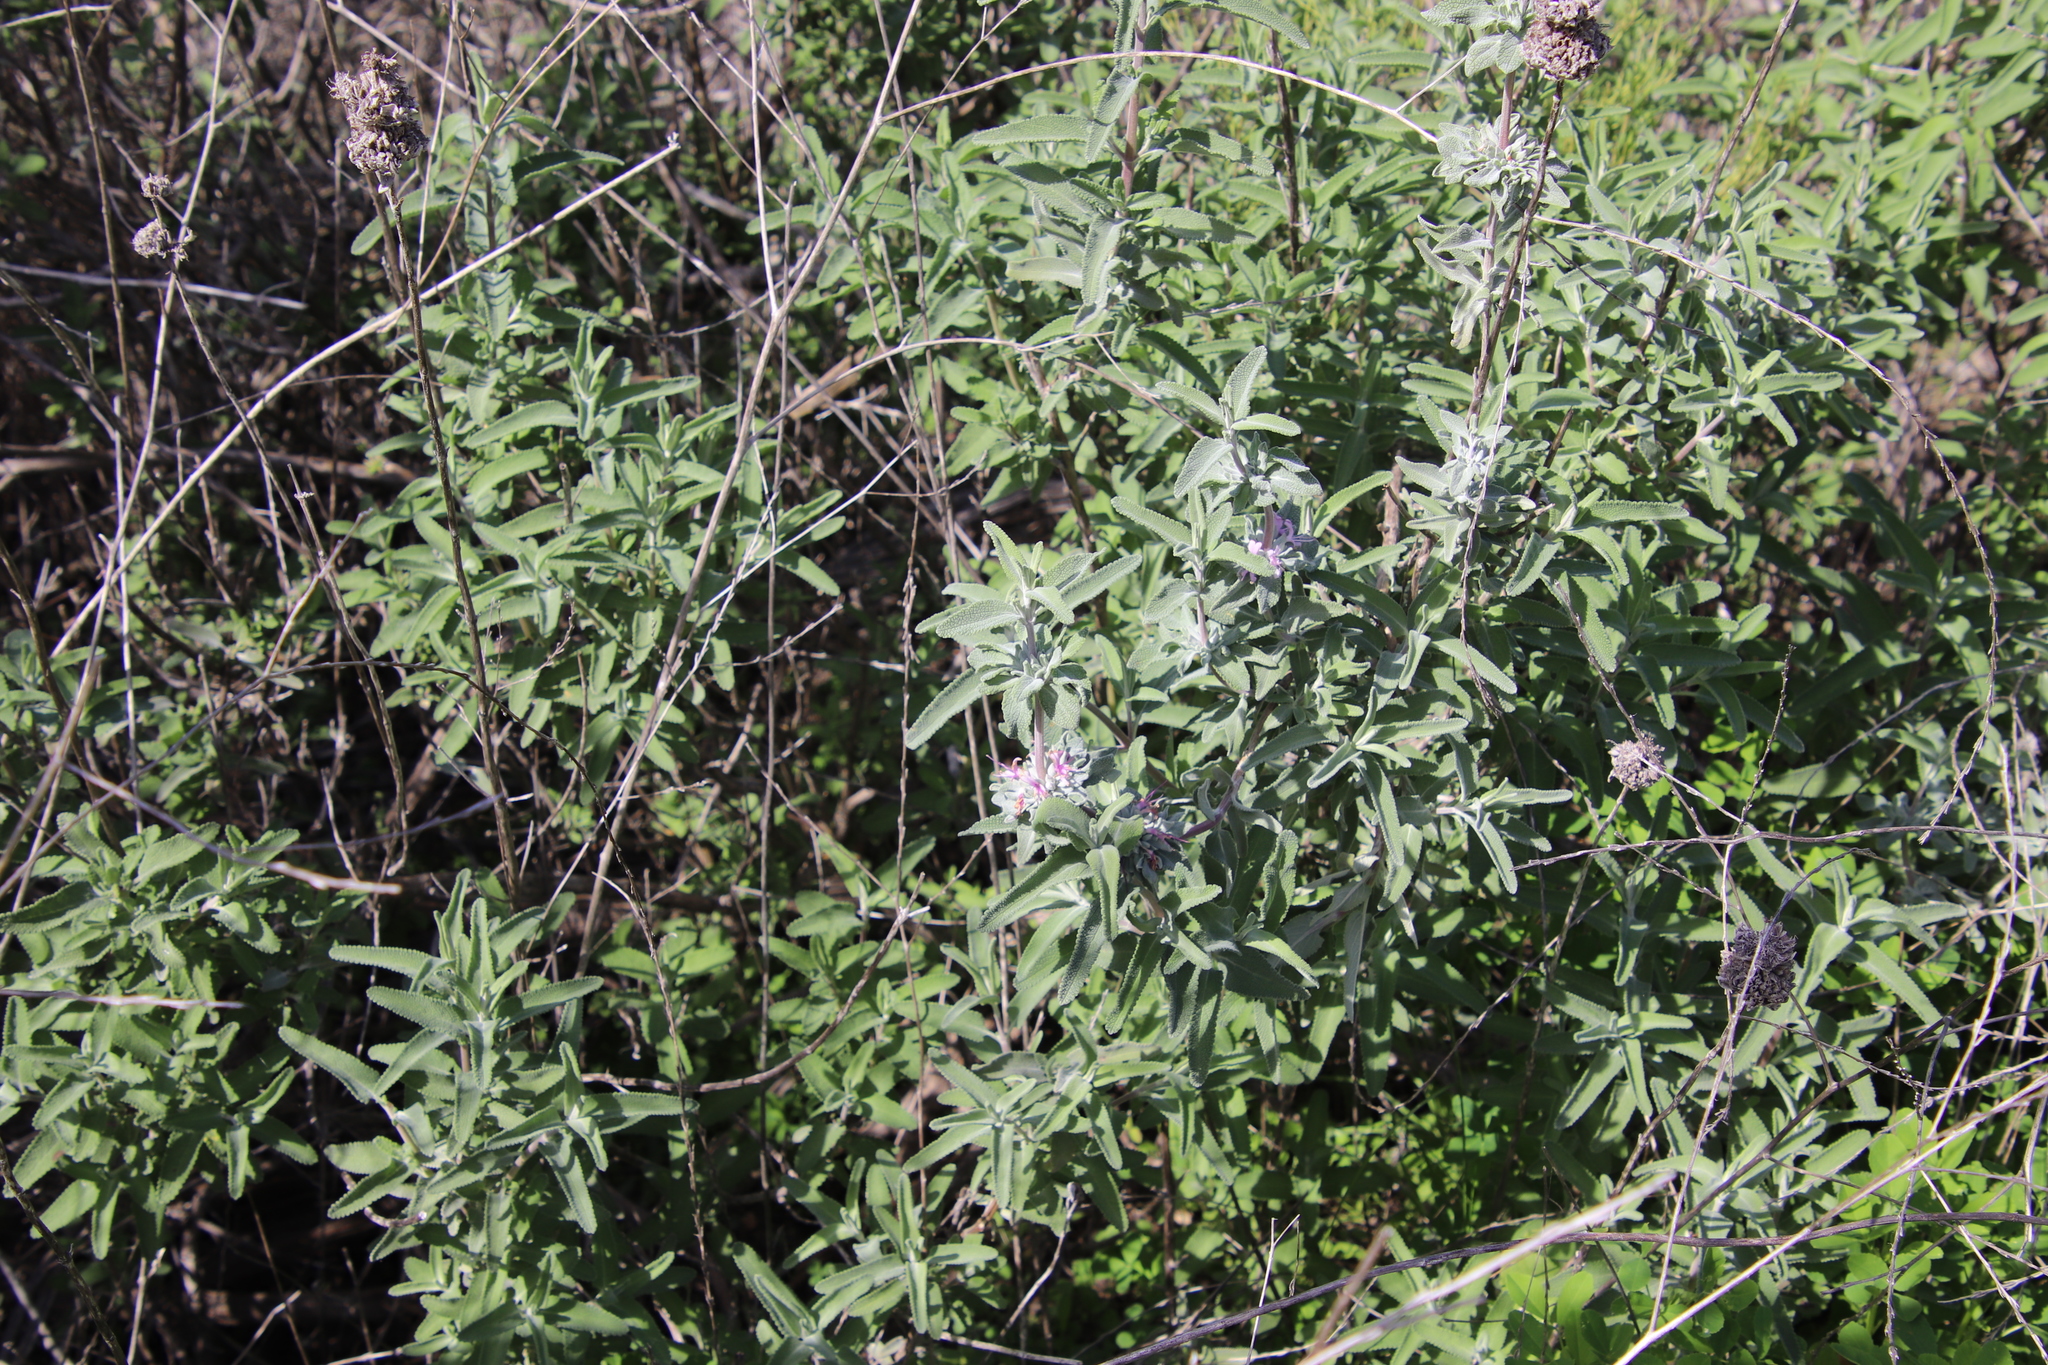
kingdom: Plantae
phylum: Tracheophyta
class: Magnoliopsida
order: Lamiales
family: Lamiaceae
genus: Salvia
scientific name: Salvia leucophylla
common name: Purple sage
